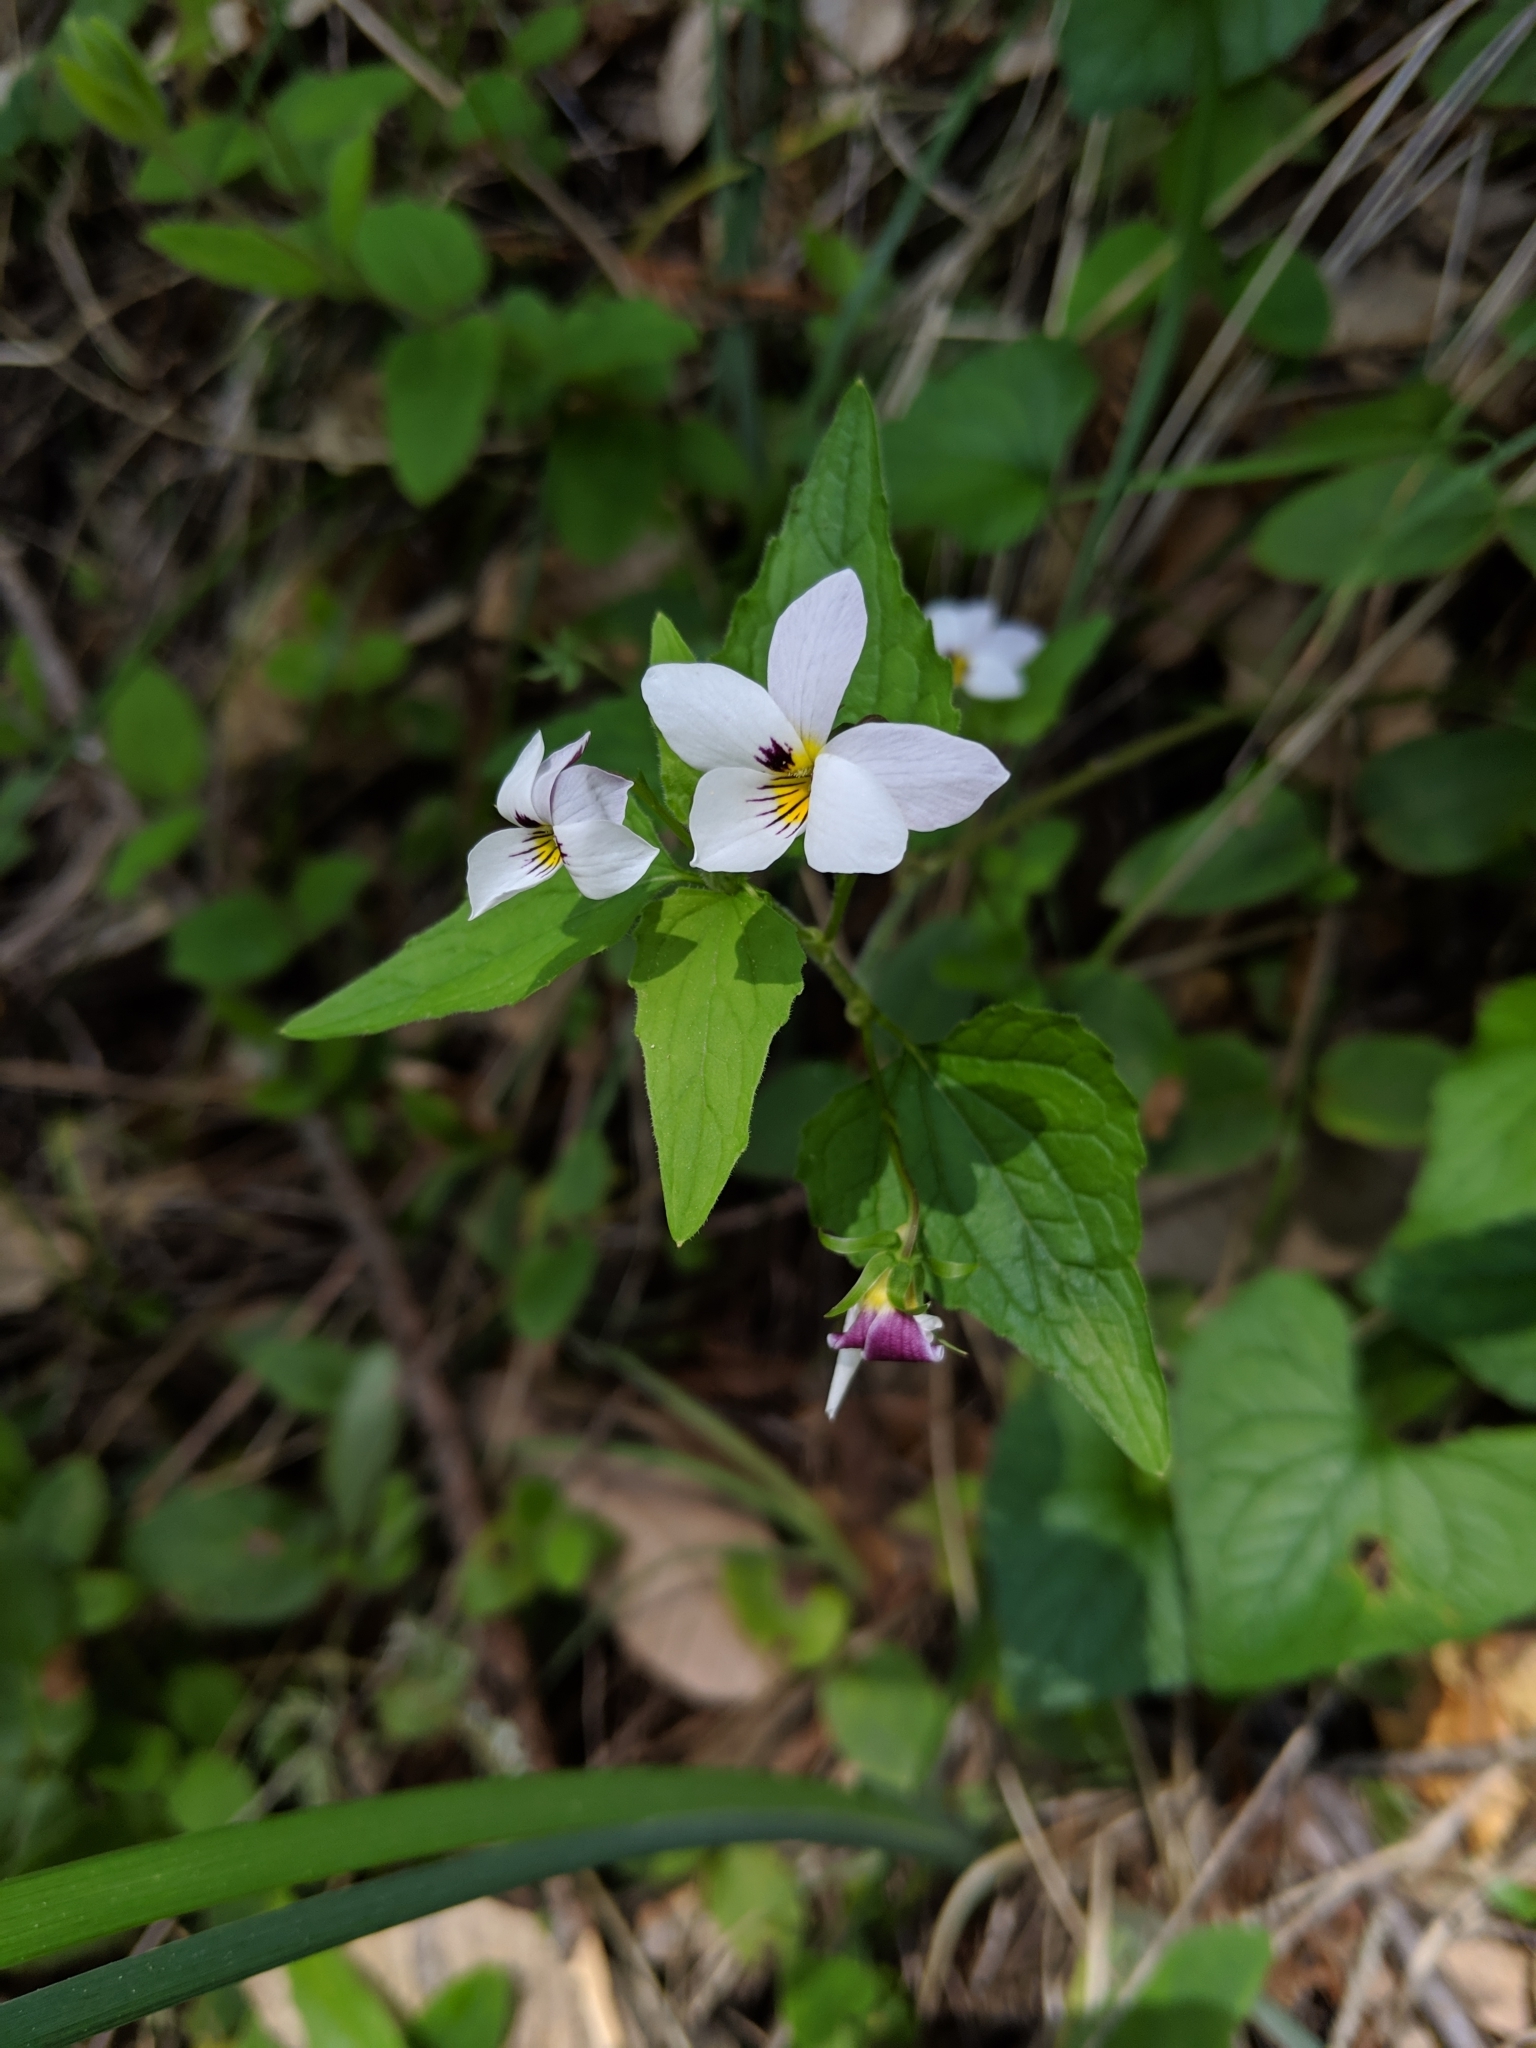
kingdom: Plantae
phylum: Tracheophyta
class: Magnoliopsida
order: Malpighiales
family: Violaceae
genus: Viola
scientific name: Viola ocellata
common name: Western heart's ease
